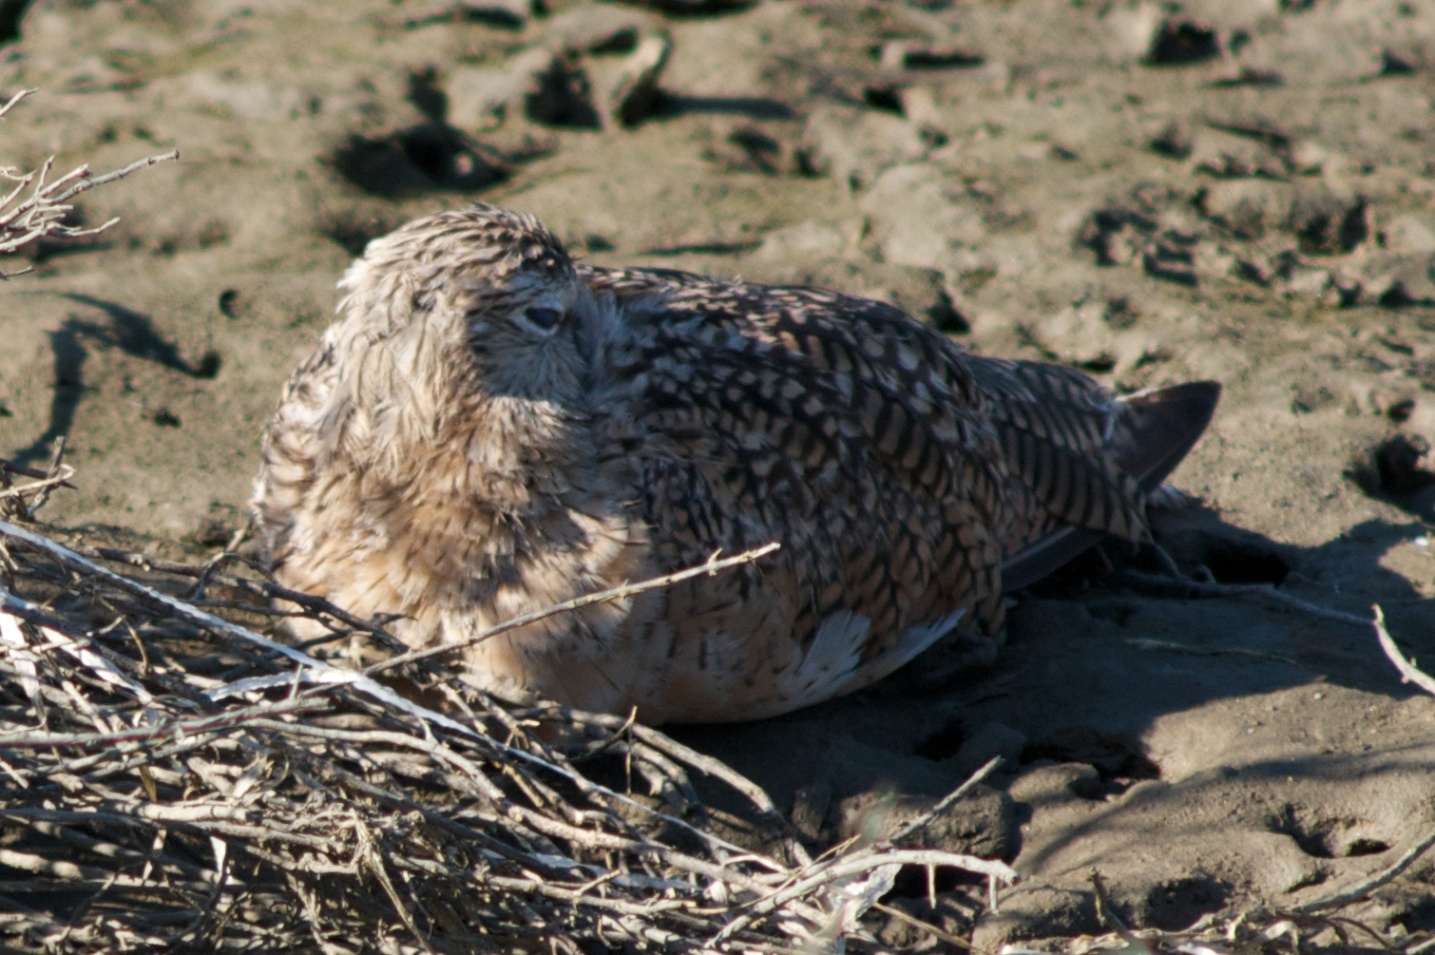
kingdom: Animalia
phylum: Chordata
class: Aves
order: Charadriiformes
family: Scolopacidae
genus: Limosa
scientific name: Limosa fedoa
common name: Marbled godwit
